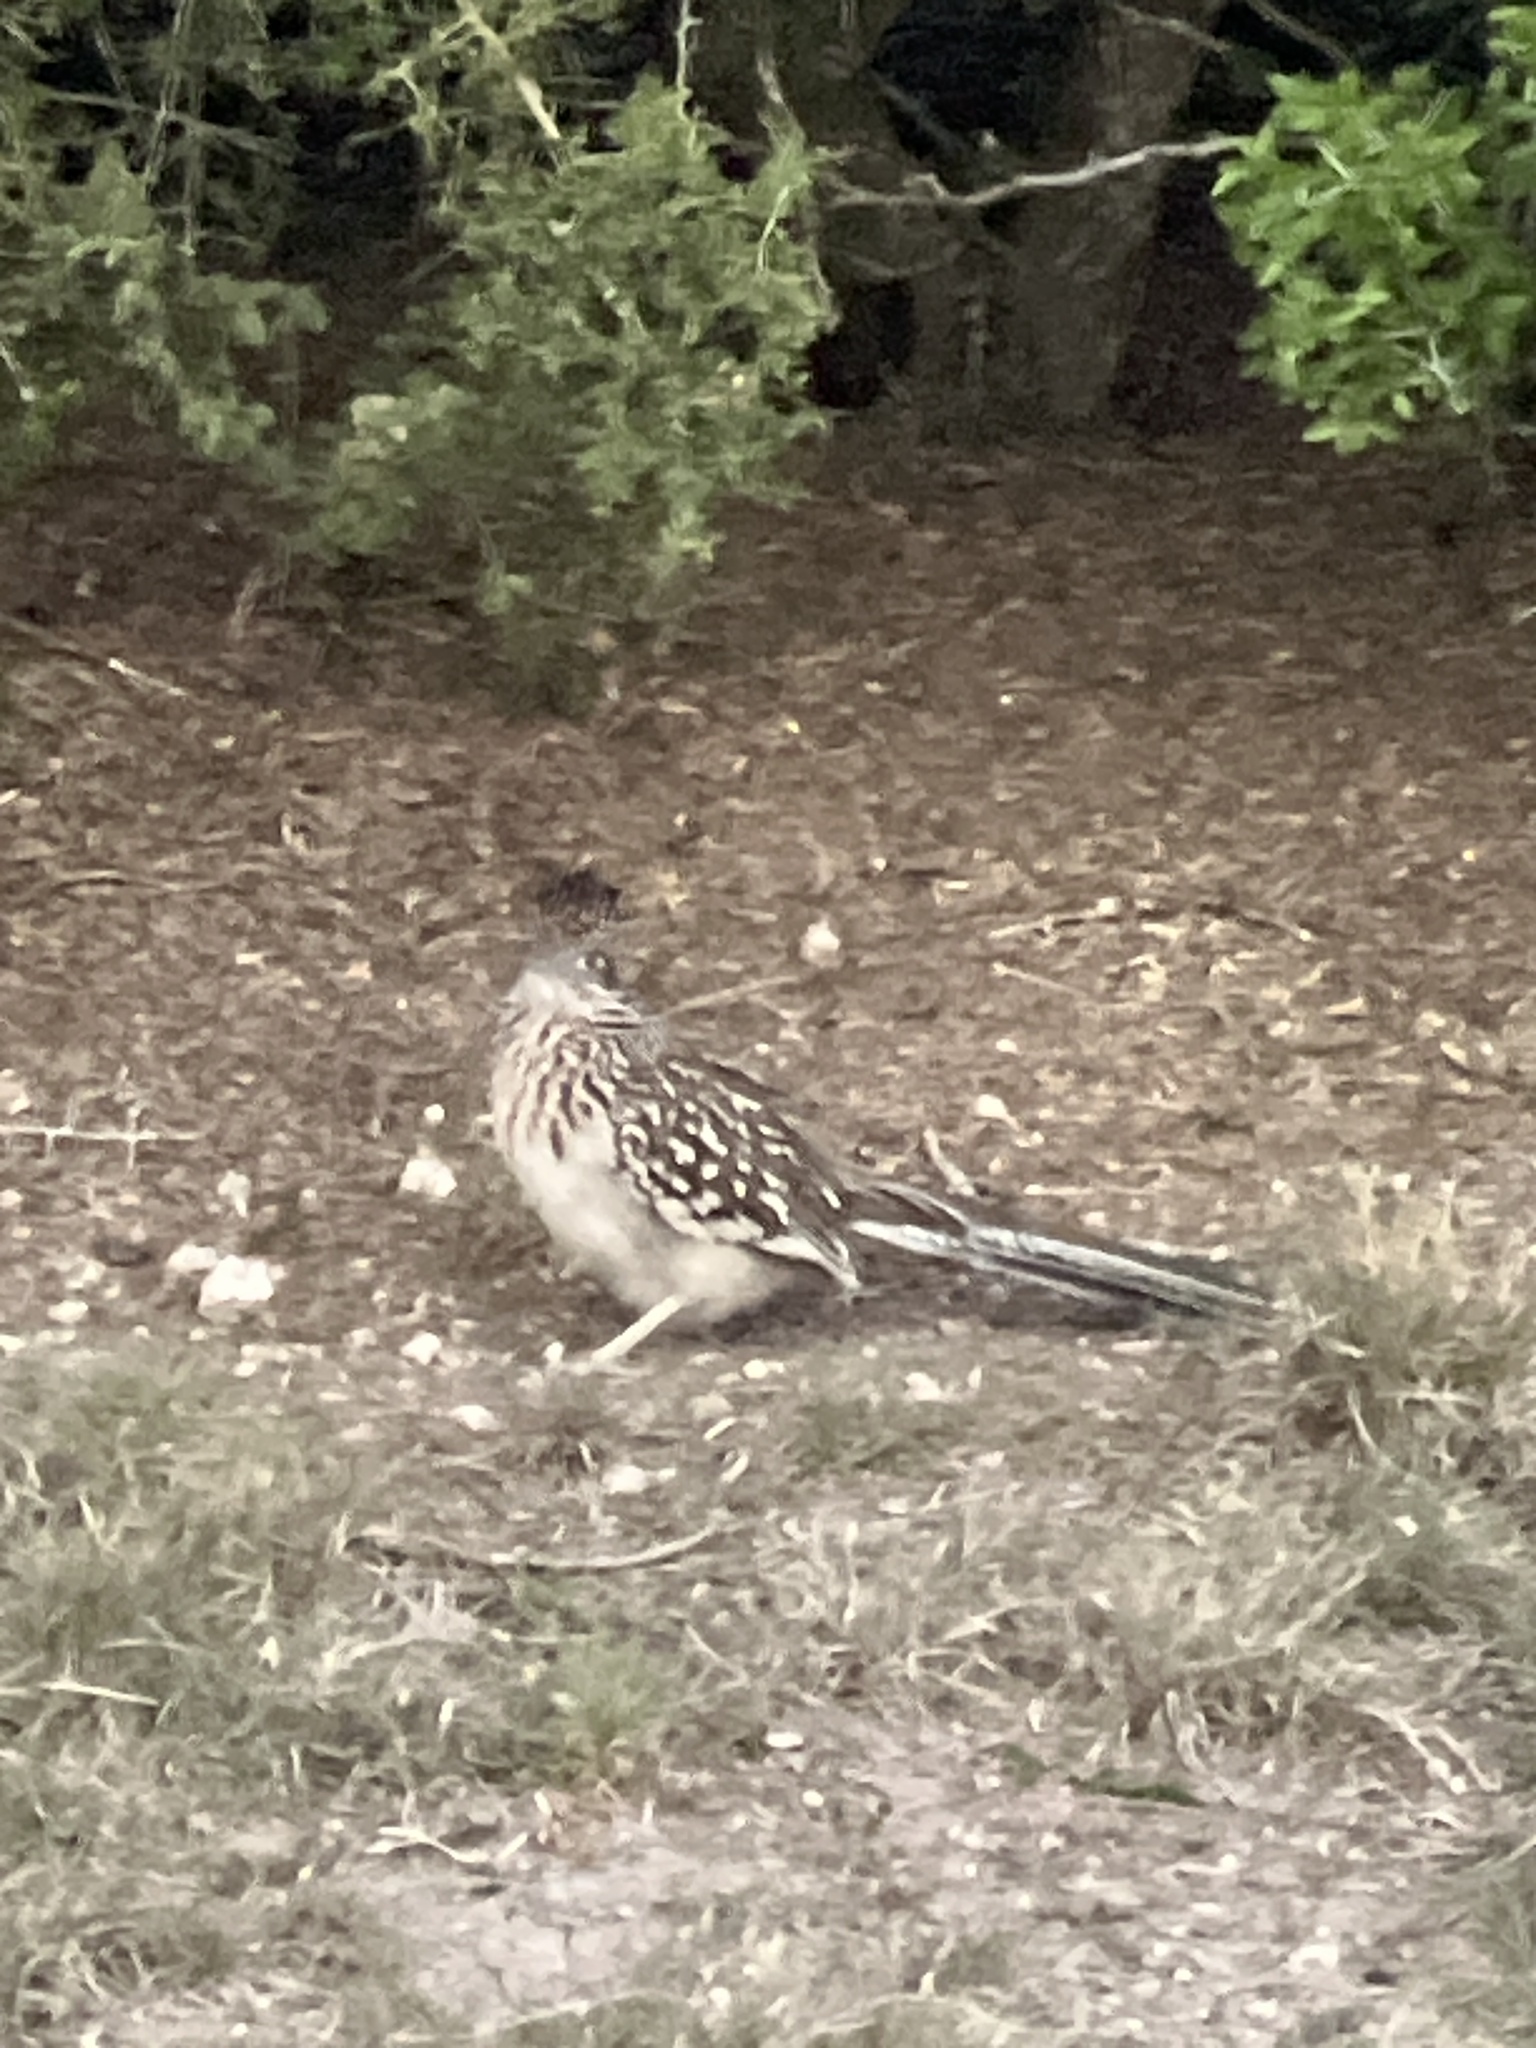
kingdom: Animalia
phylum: Chordata
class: Aves
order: Cuculiformes
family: Cuculidae
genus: Geococcyx
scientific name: Geococcyx californianus
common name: Greater roadrunner
